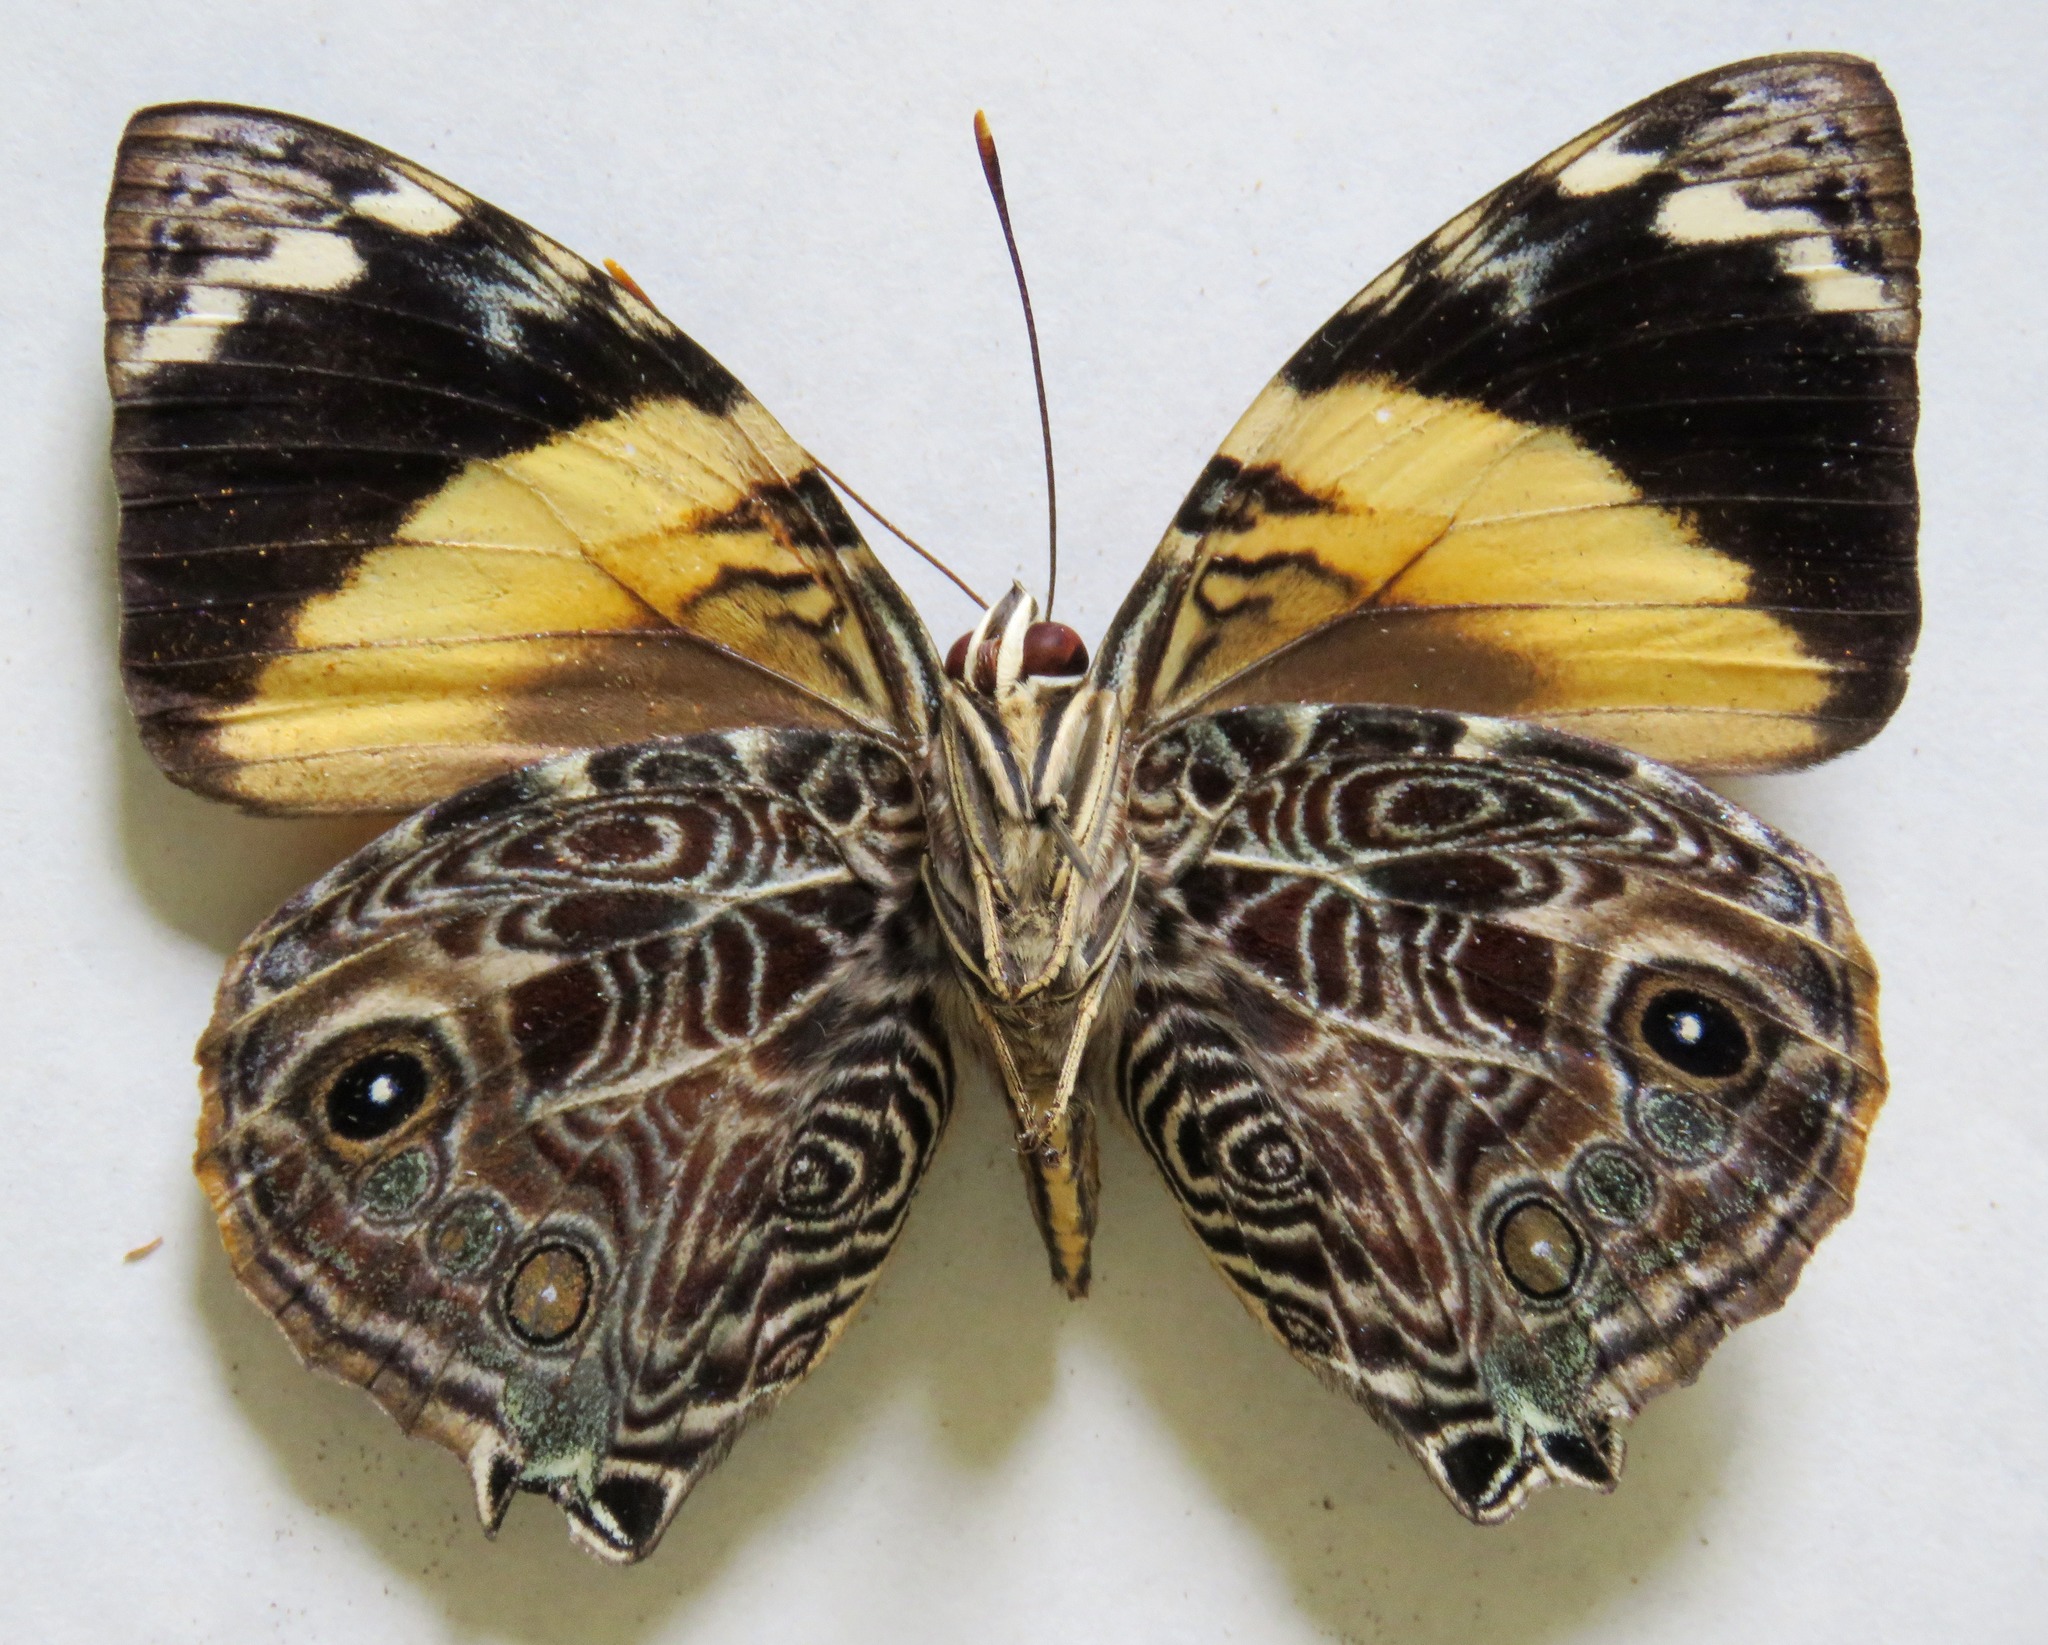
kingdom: Animalia
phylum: Arthropoda
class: Insecta
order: Lepidoptera
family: Nymphalidae
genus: Smyrna
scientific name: Smyrna blomfildia
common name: Blomfild's beauty
